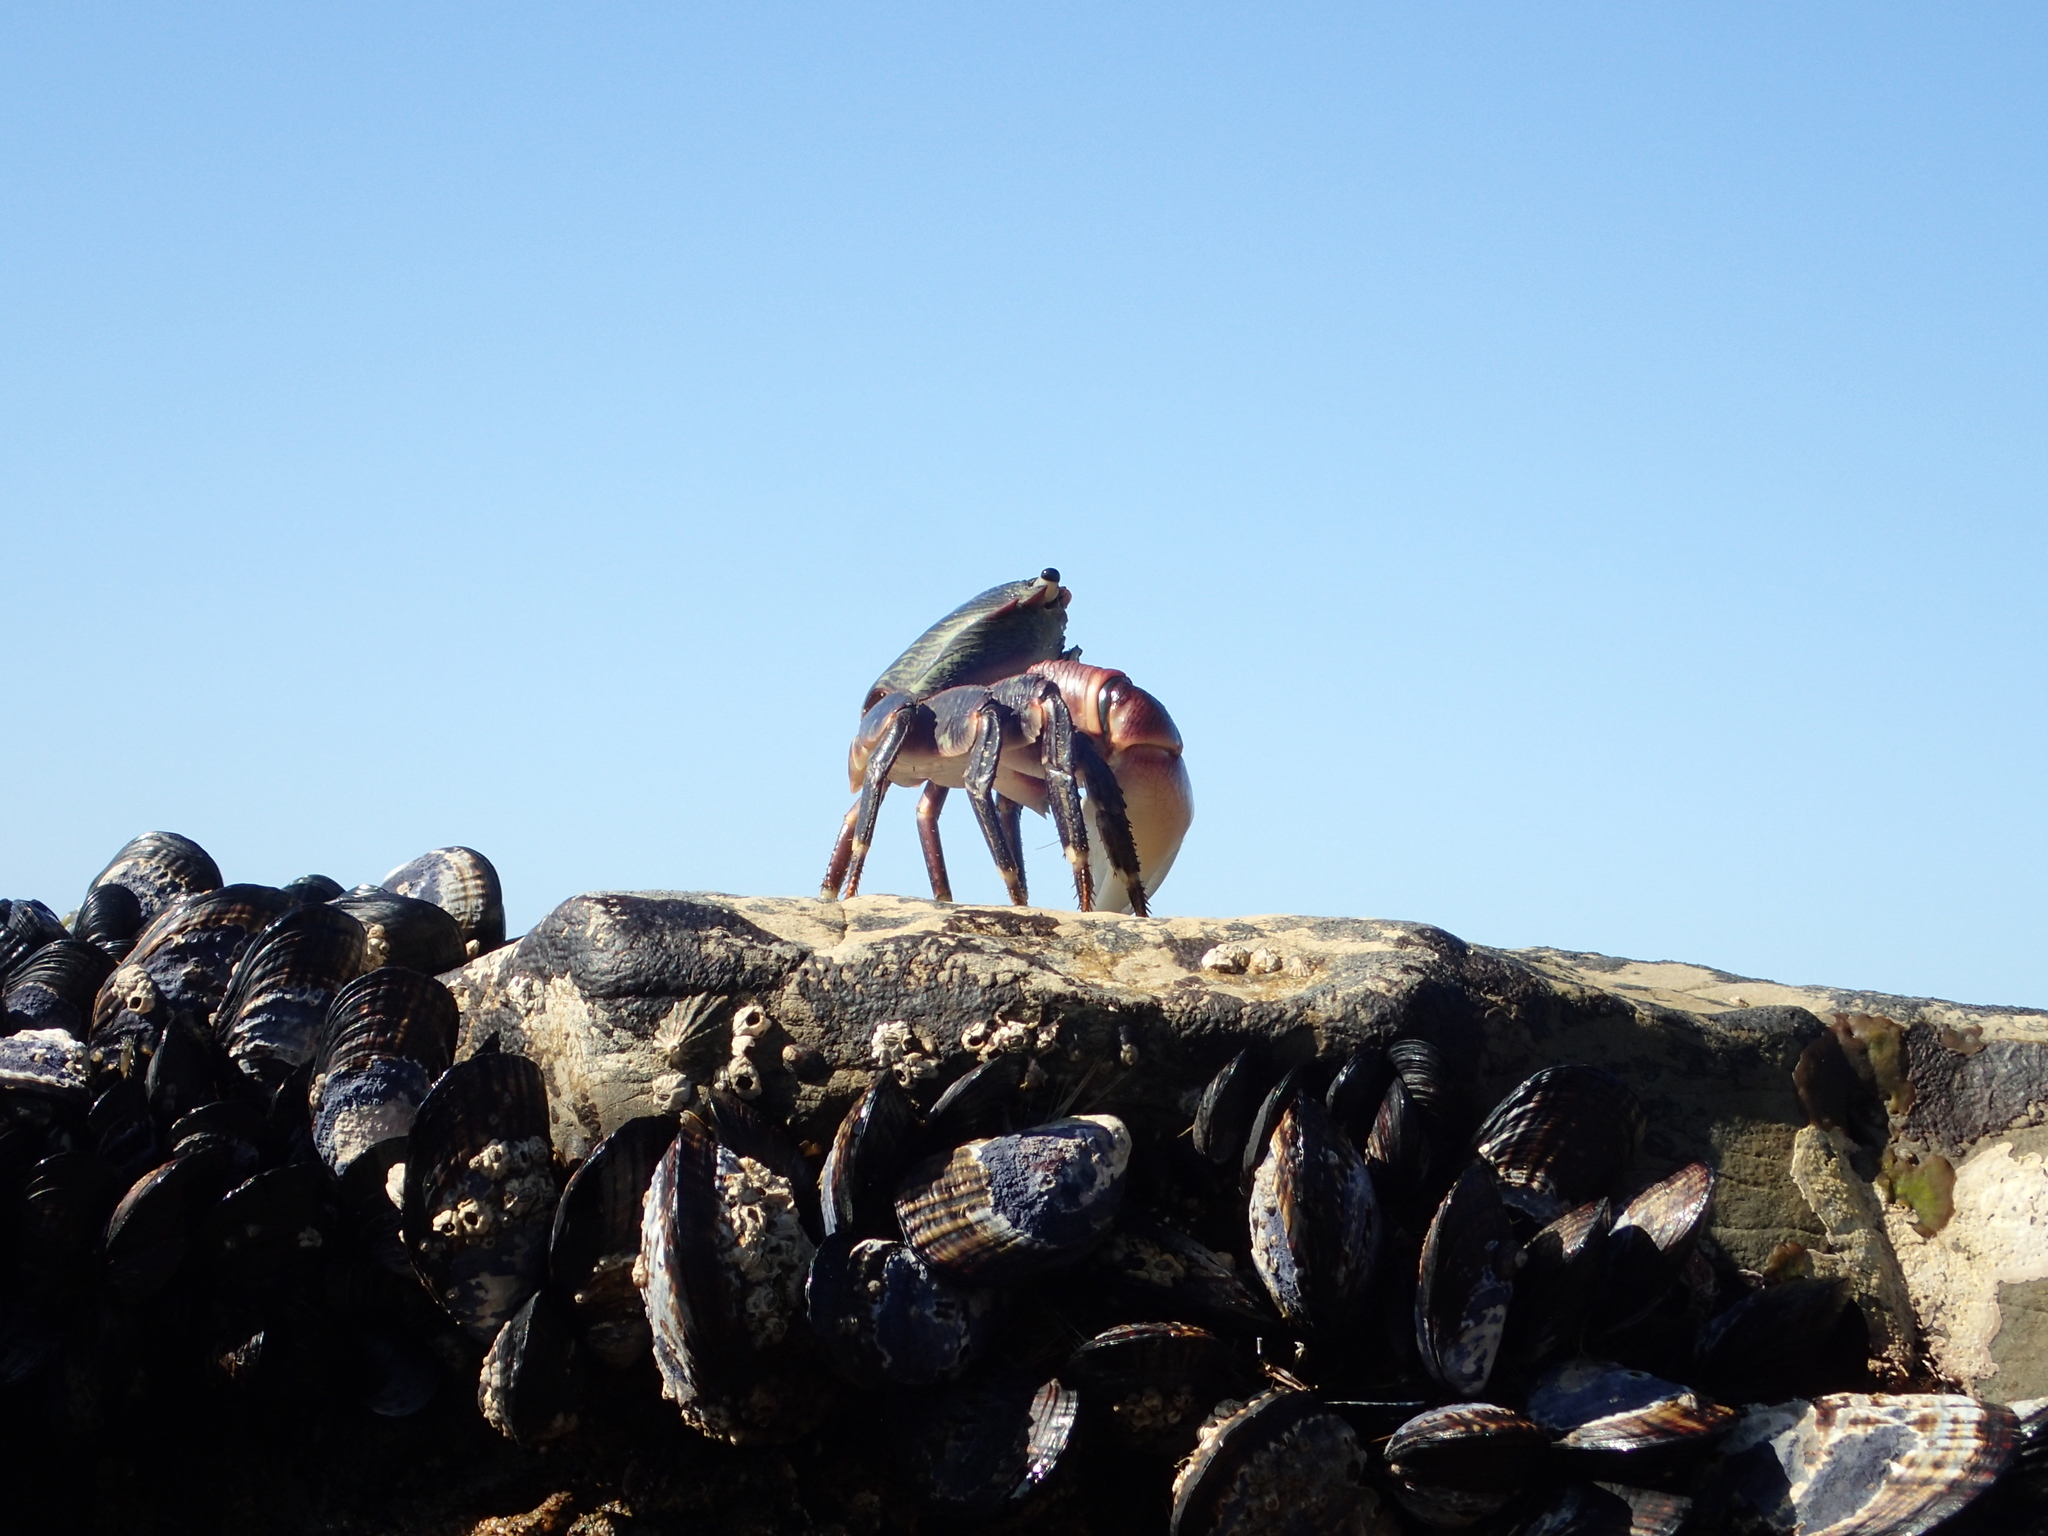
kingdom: Animalia
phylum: Arthropoda
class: Malacostraca
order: Decapoda
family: Grapsidae
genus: Pachygrapsus
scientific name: Pachygrapsus crassipes
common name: Striped shore crab
